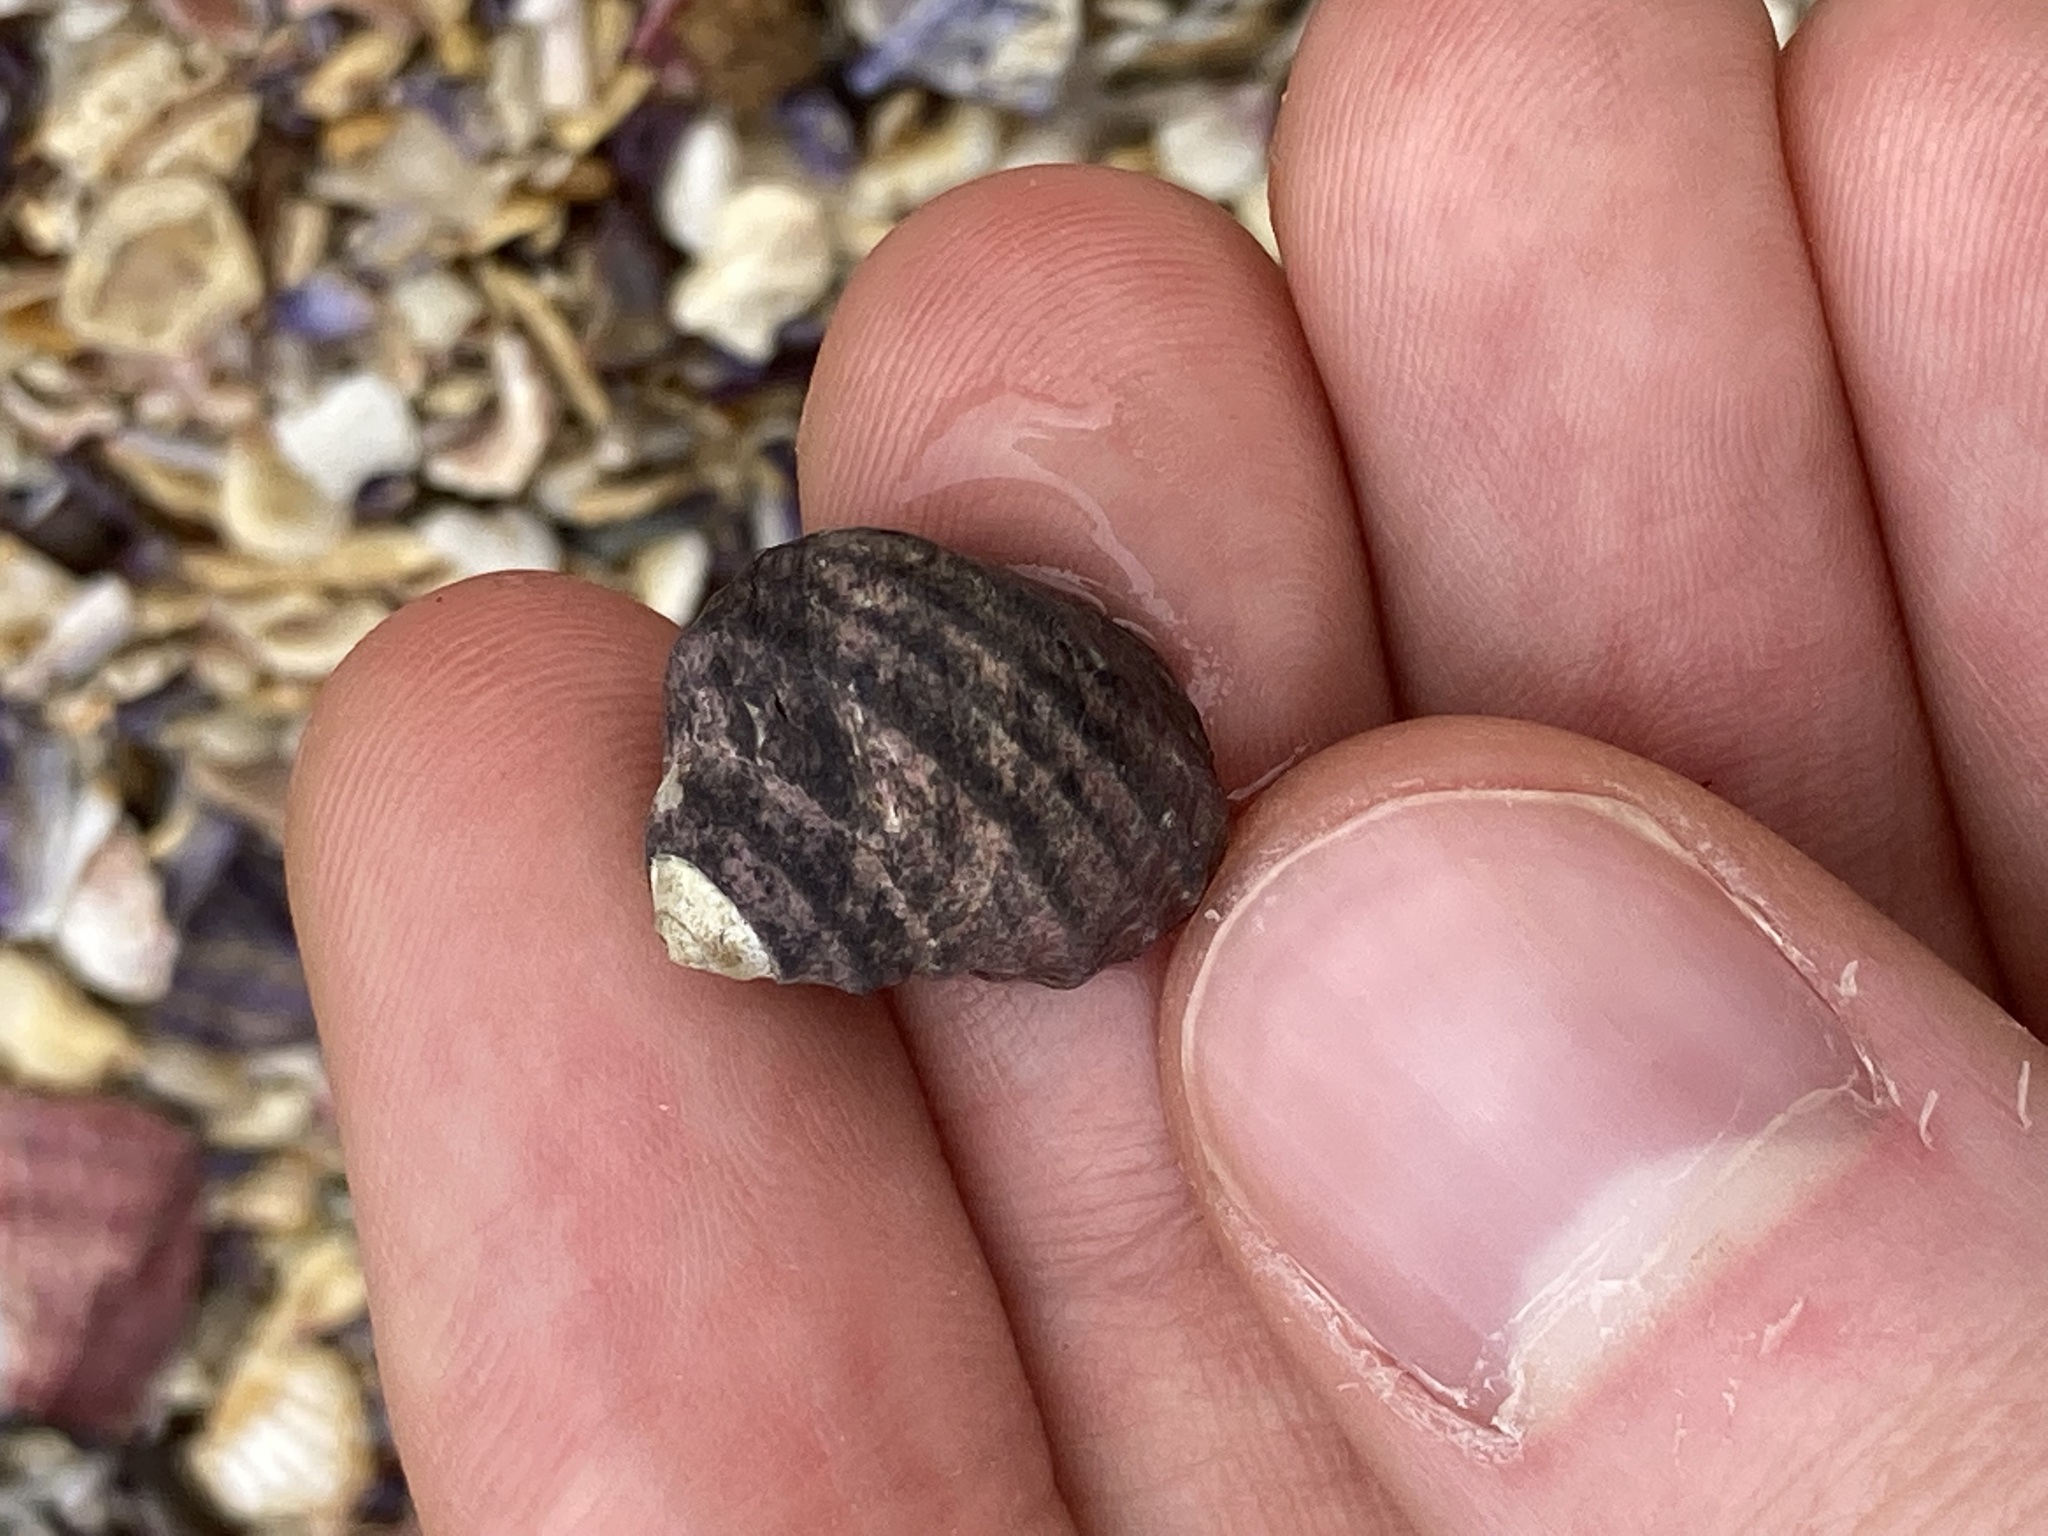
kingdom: Animalia
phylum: Mollusca
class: Gastropoda
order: Trochida
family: Trochidae
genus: Austrocochlea
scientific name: Austrocochlea constricta
